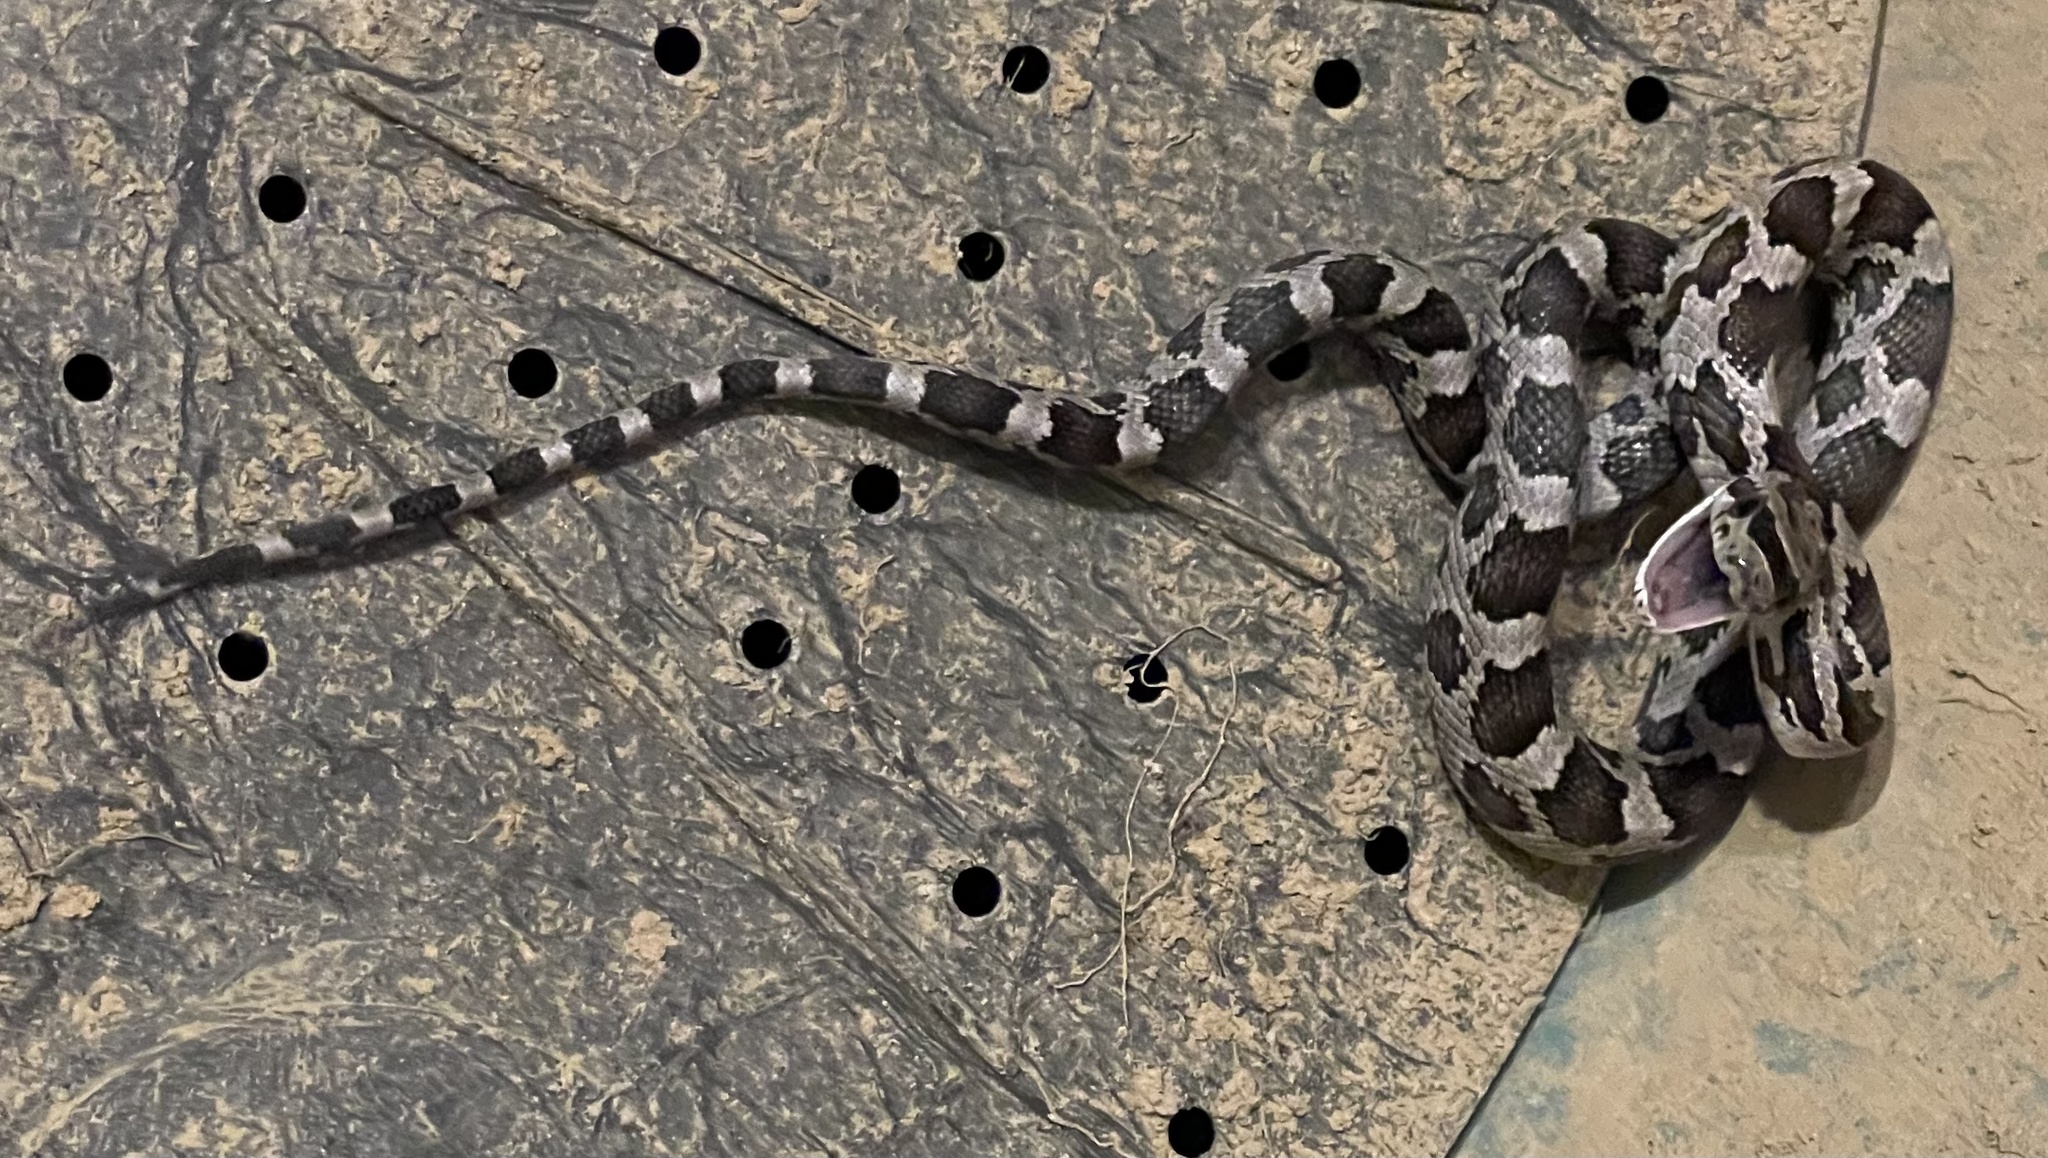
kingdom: Animalia
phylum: Chordata
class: Squamata
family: Colubridae
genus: Pantherophis
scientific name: Pantherophis obsoletus
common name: Black rat snake
